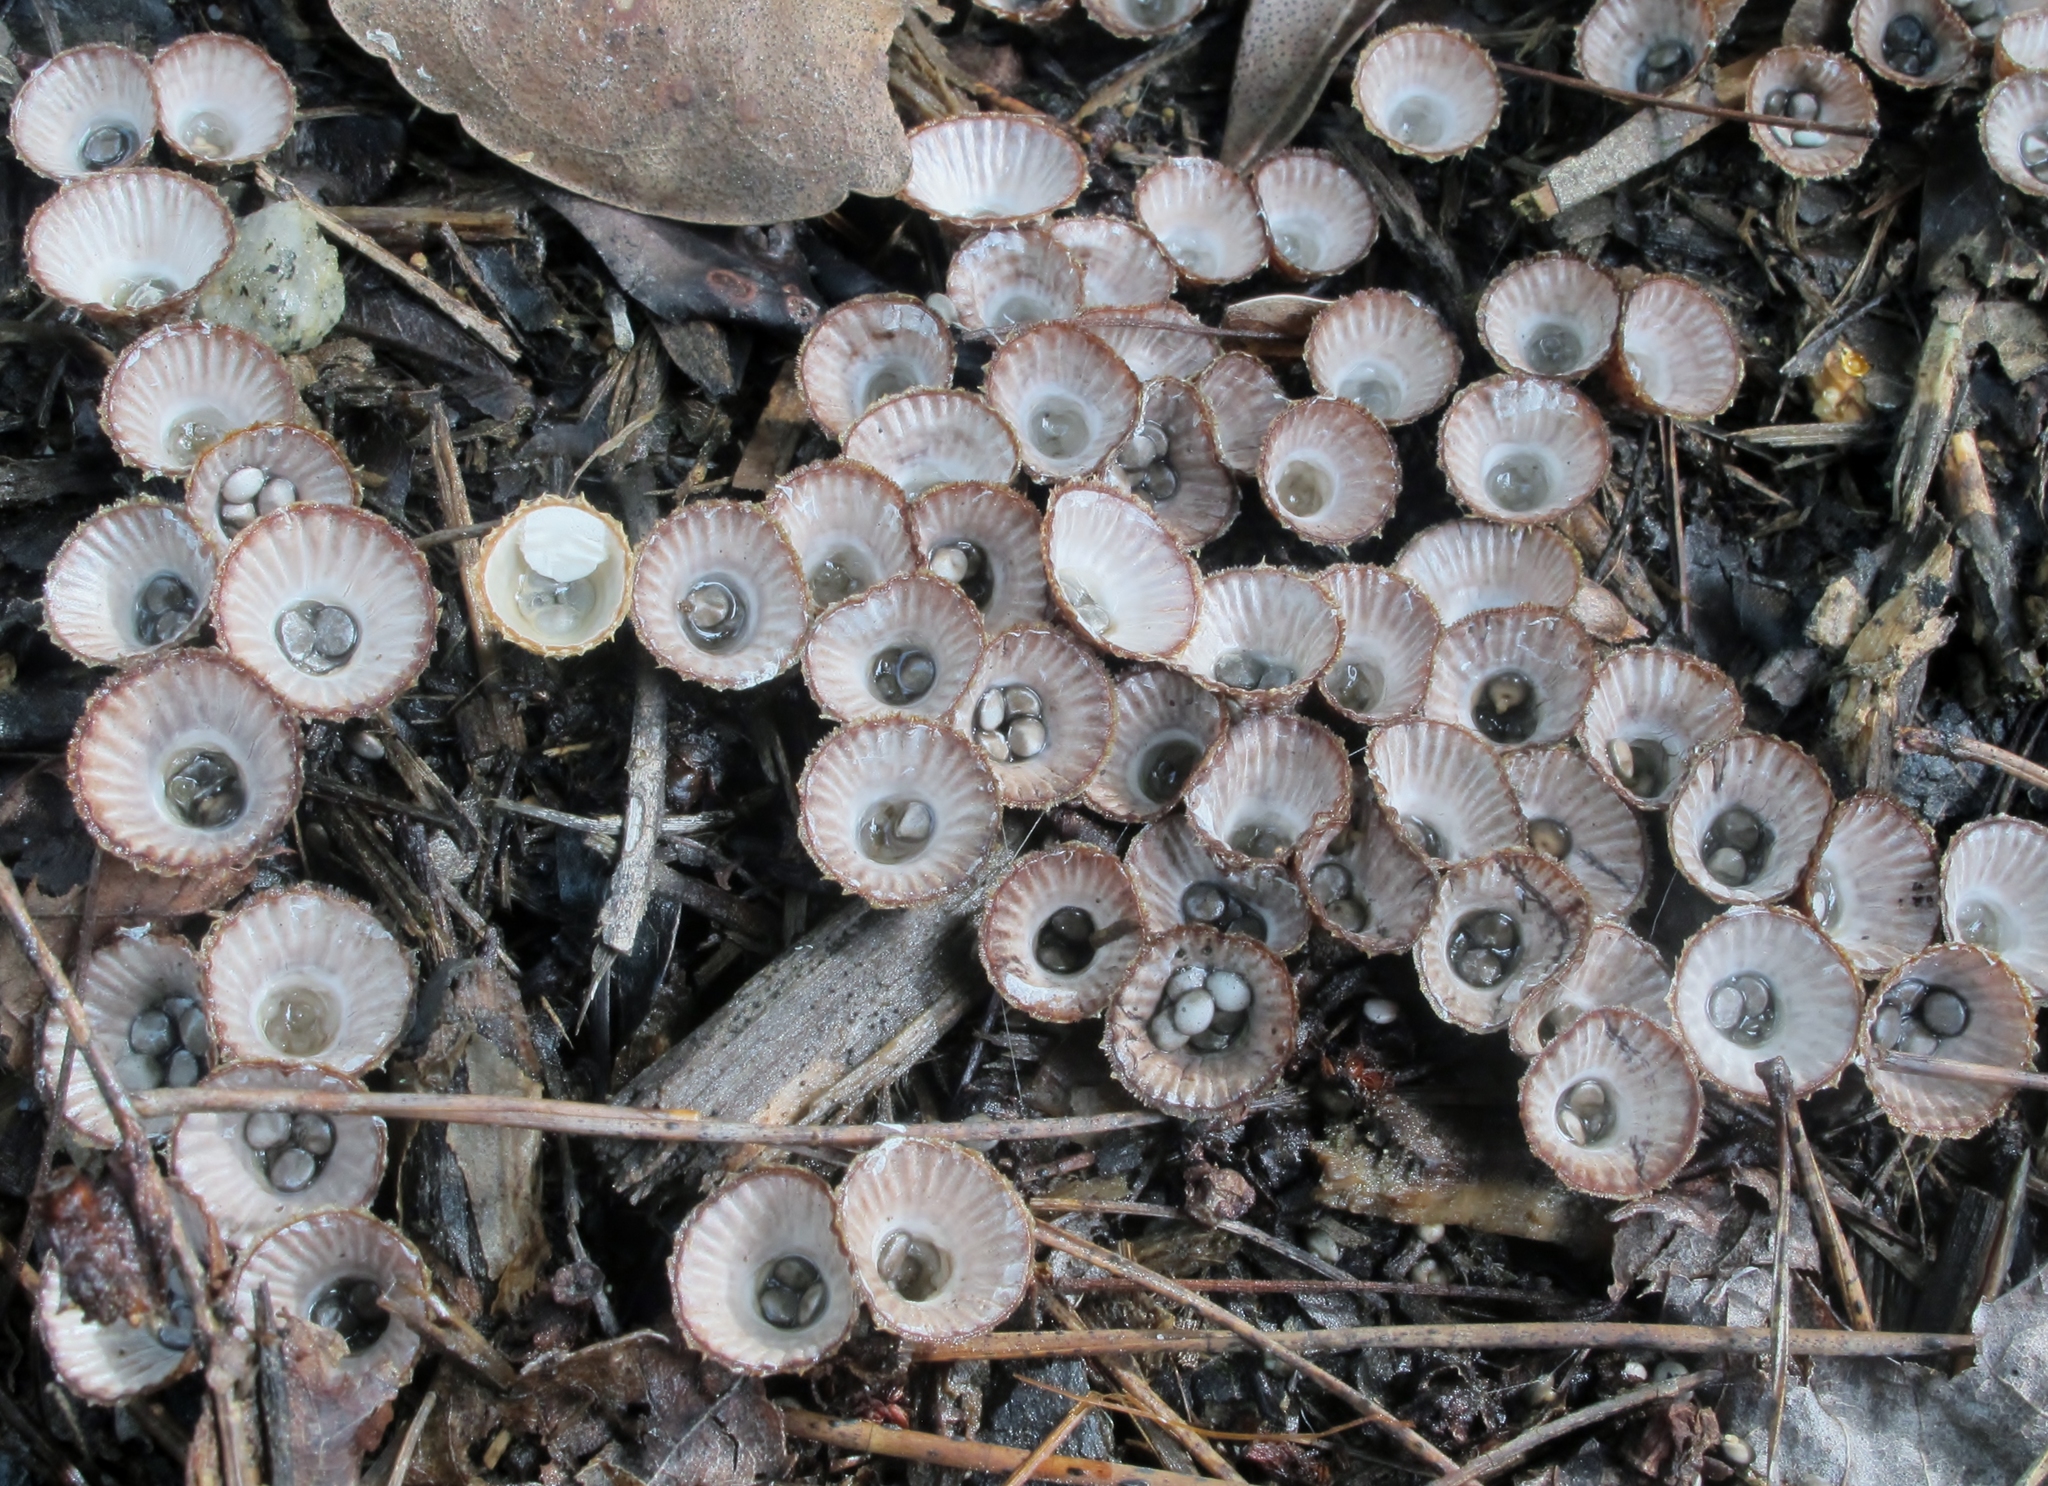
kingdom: Fungi
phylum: Basidiomycota
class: Agaricomycetes
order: Agaricales
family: Agaricaceae
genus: Cyathus
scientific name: Cyathus striatus
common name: Fluted bird's nest
